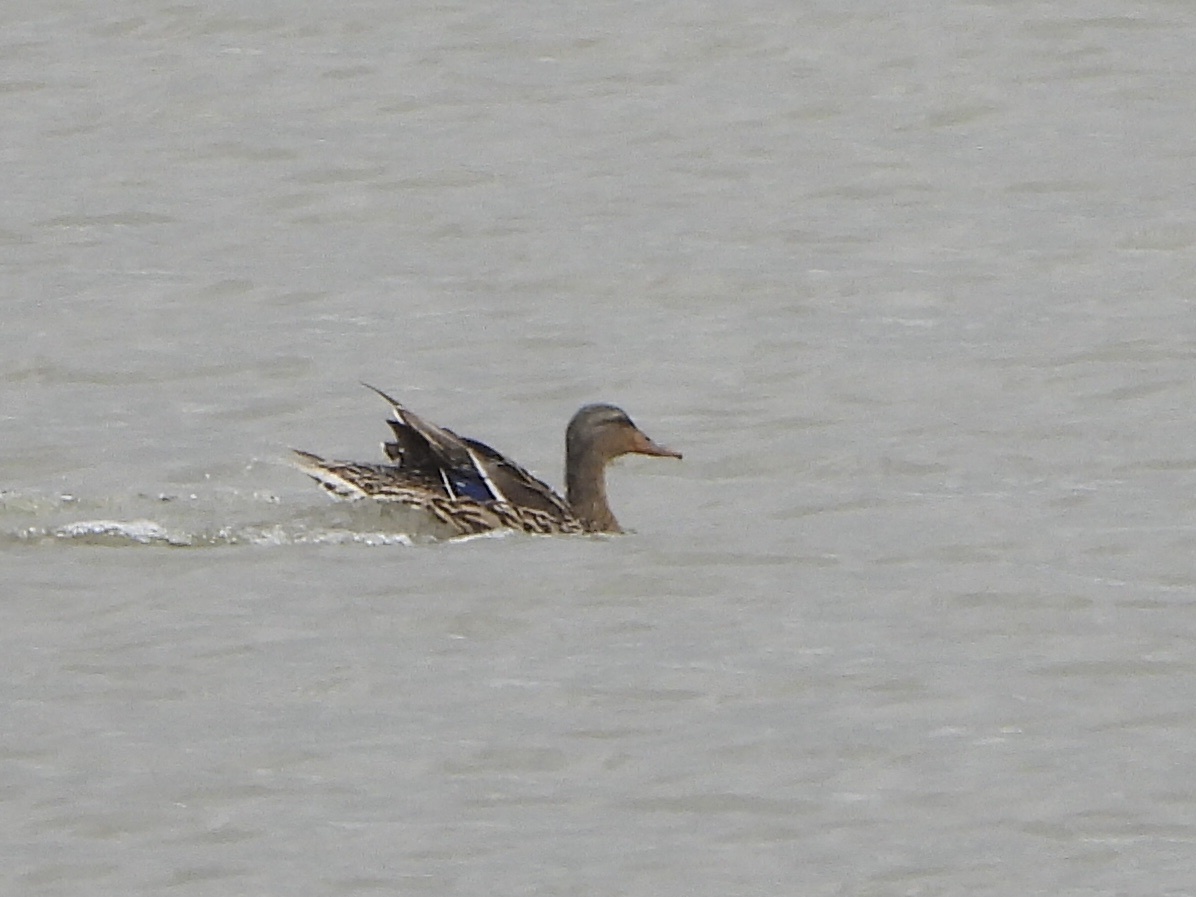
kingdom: Animalia
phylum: Chordata
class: Aves
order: Anseriformes
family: Anatidae
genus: Anas
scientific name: Anas platyrhynchos
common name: Mallard
